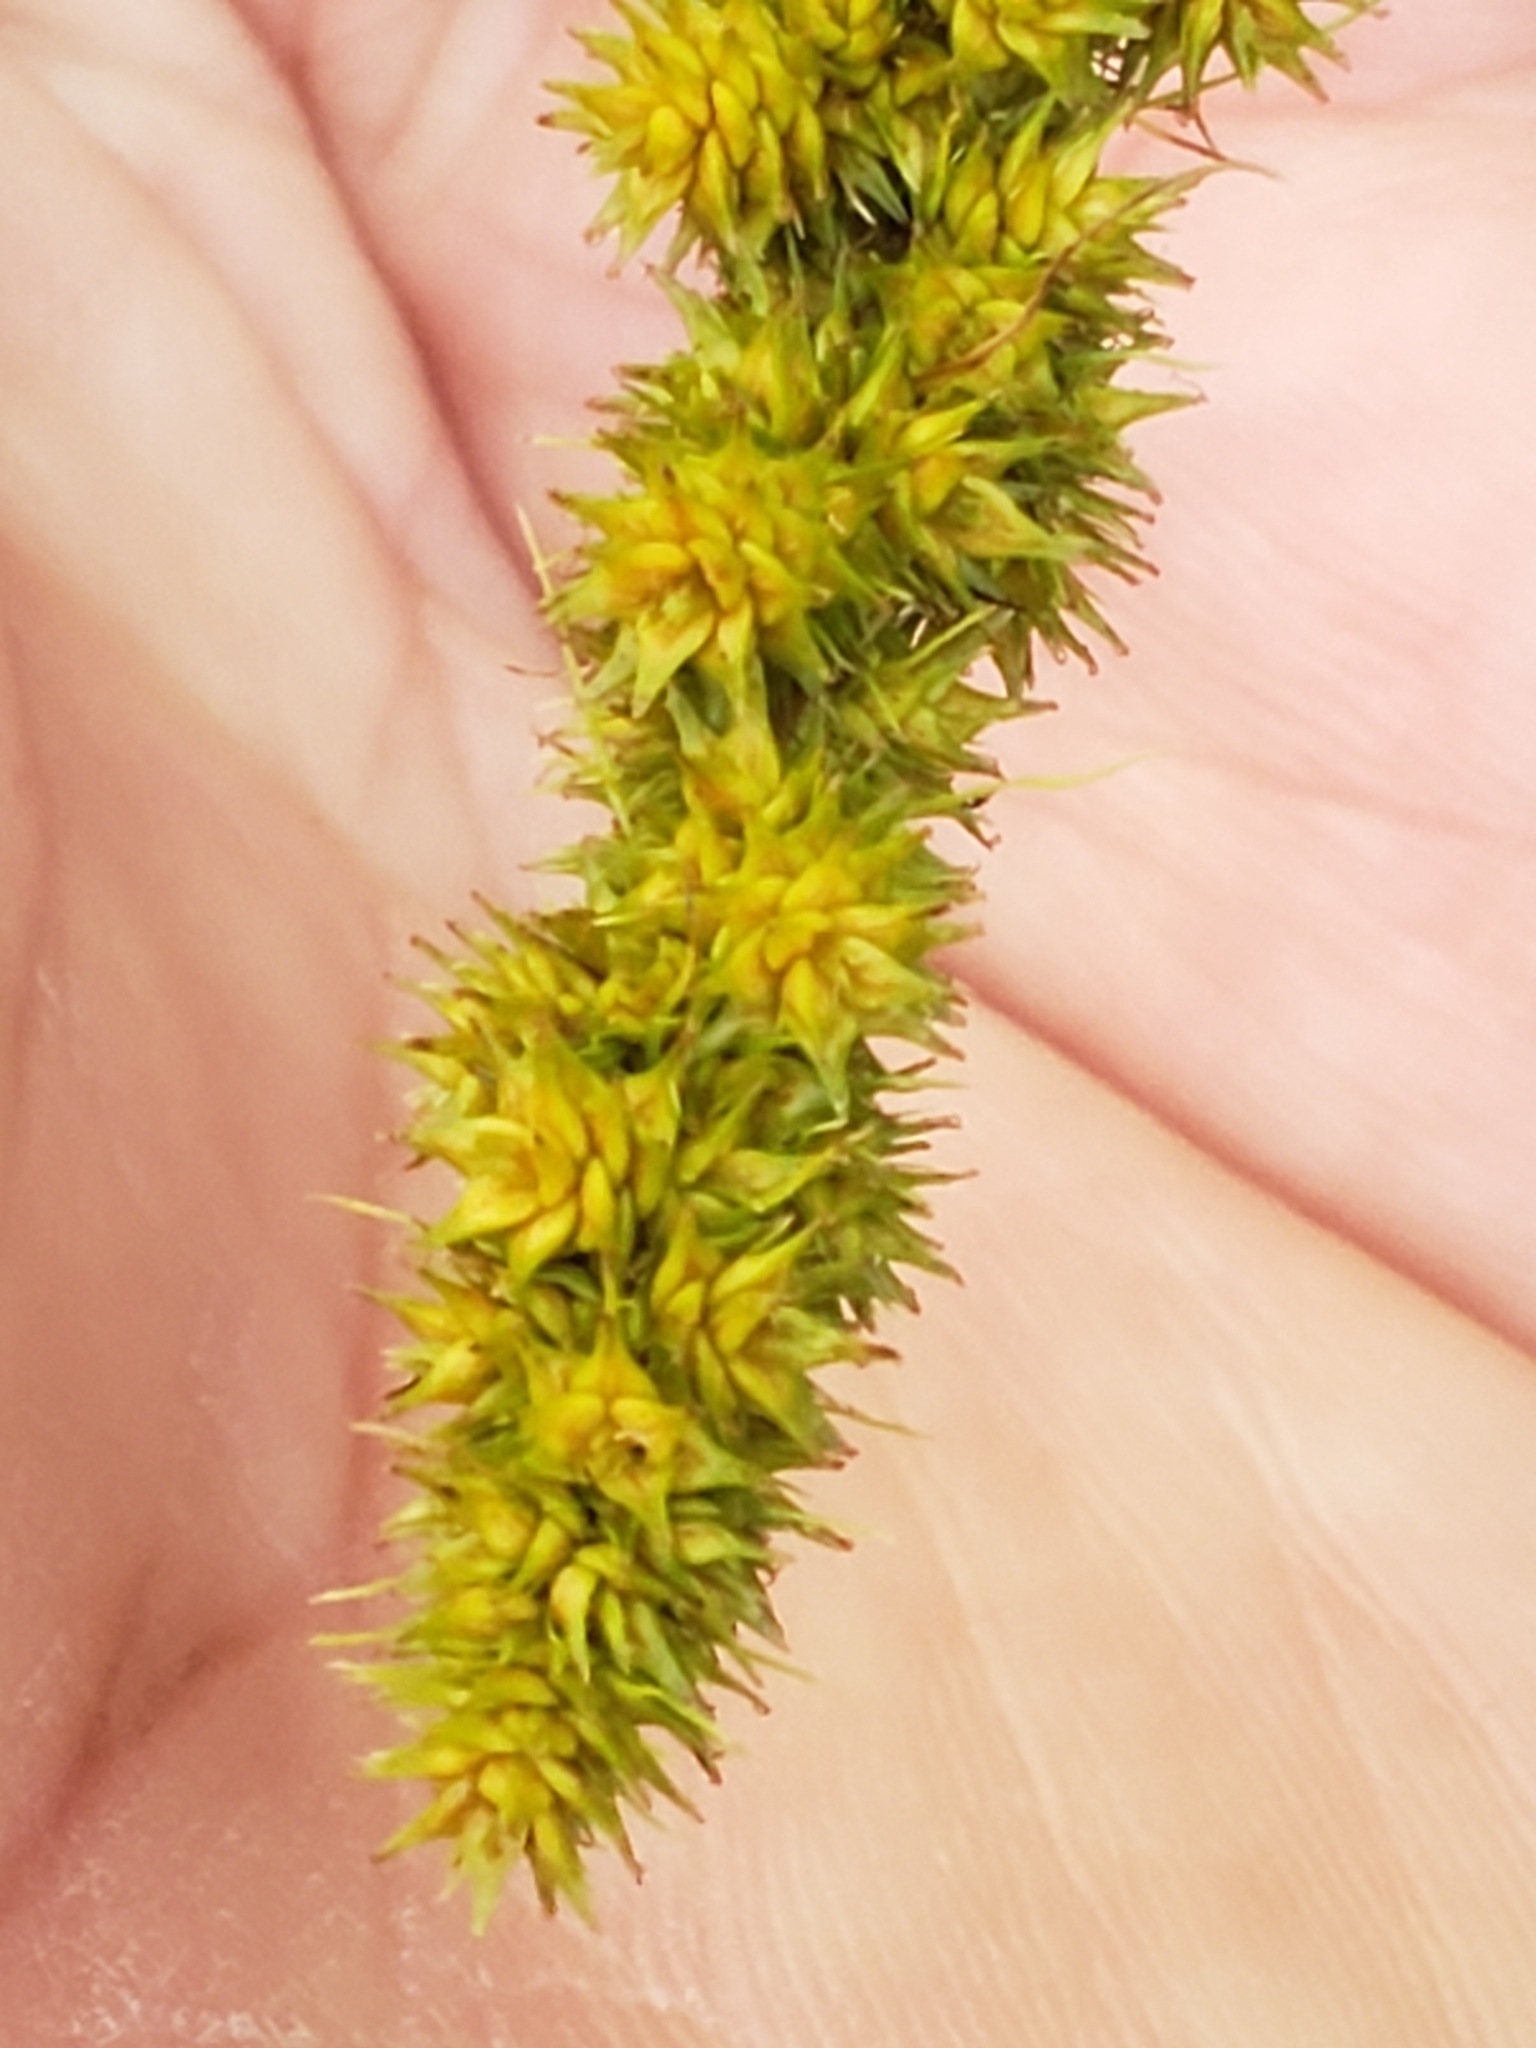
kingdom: Plantae
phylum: Tracheophyta
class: Liliopsida
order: Poales
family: Cyperaceae
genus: Carex
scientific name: Carex vulpinoidea
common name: American fox-sedge
